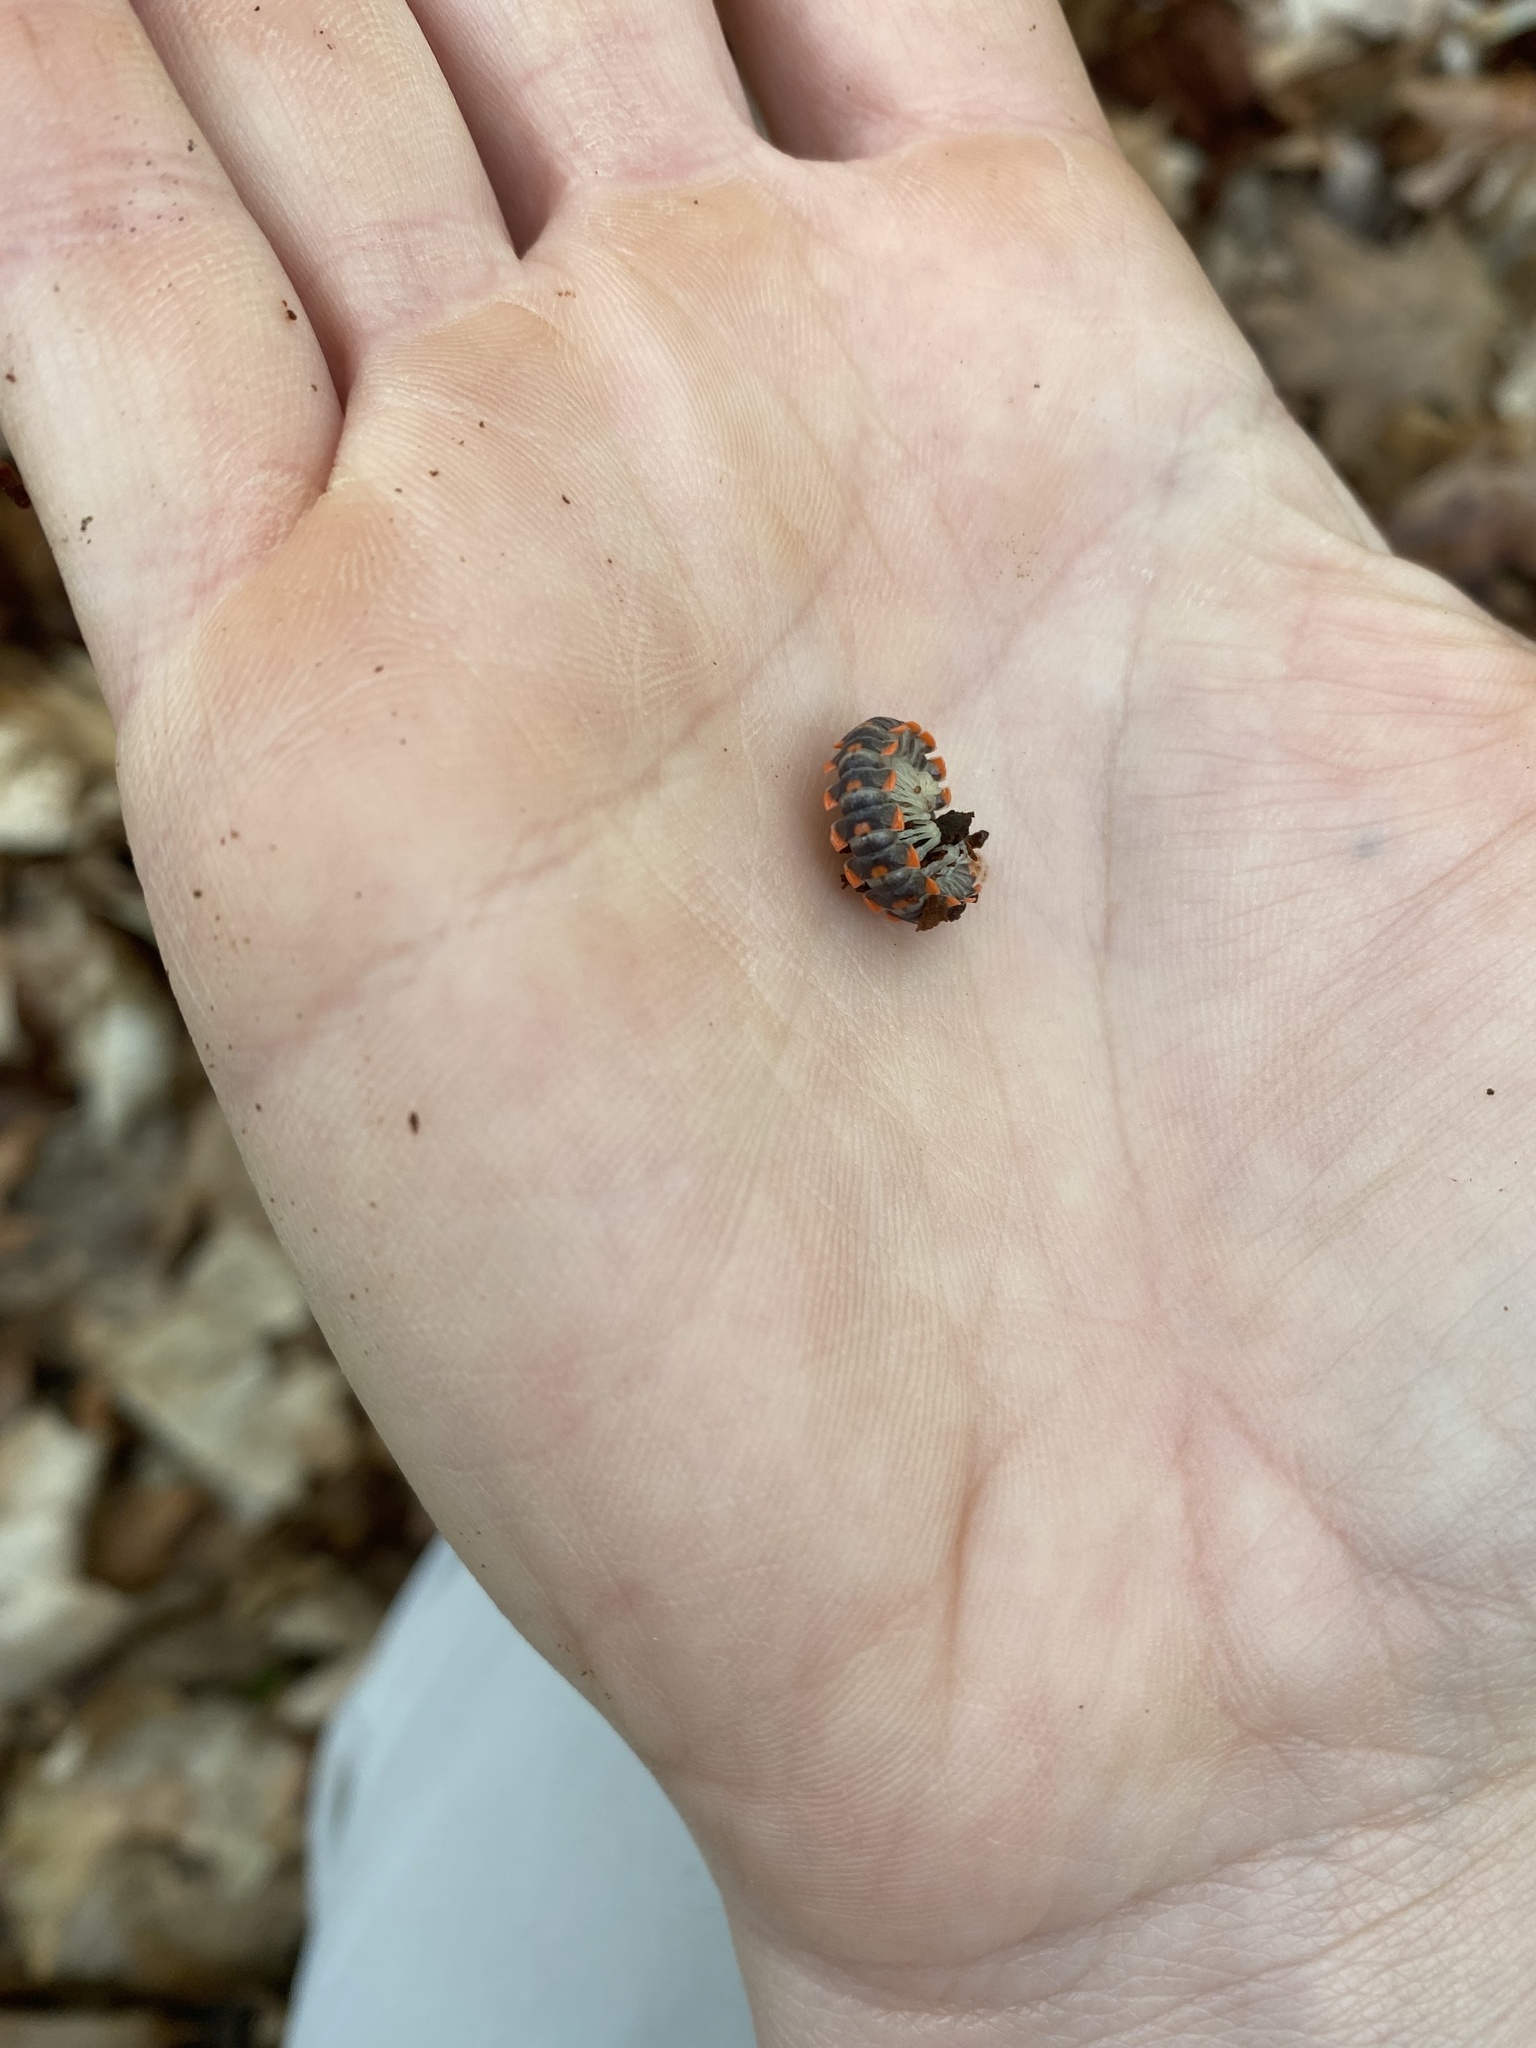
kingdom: Animalia
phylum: Arthropoda
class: Diplopoda
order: Polydesmida
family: Xystodesmidae
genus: Euryurus
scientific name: Euryurus leachii
